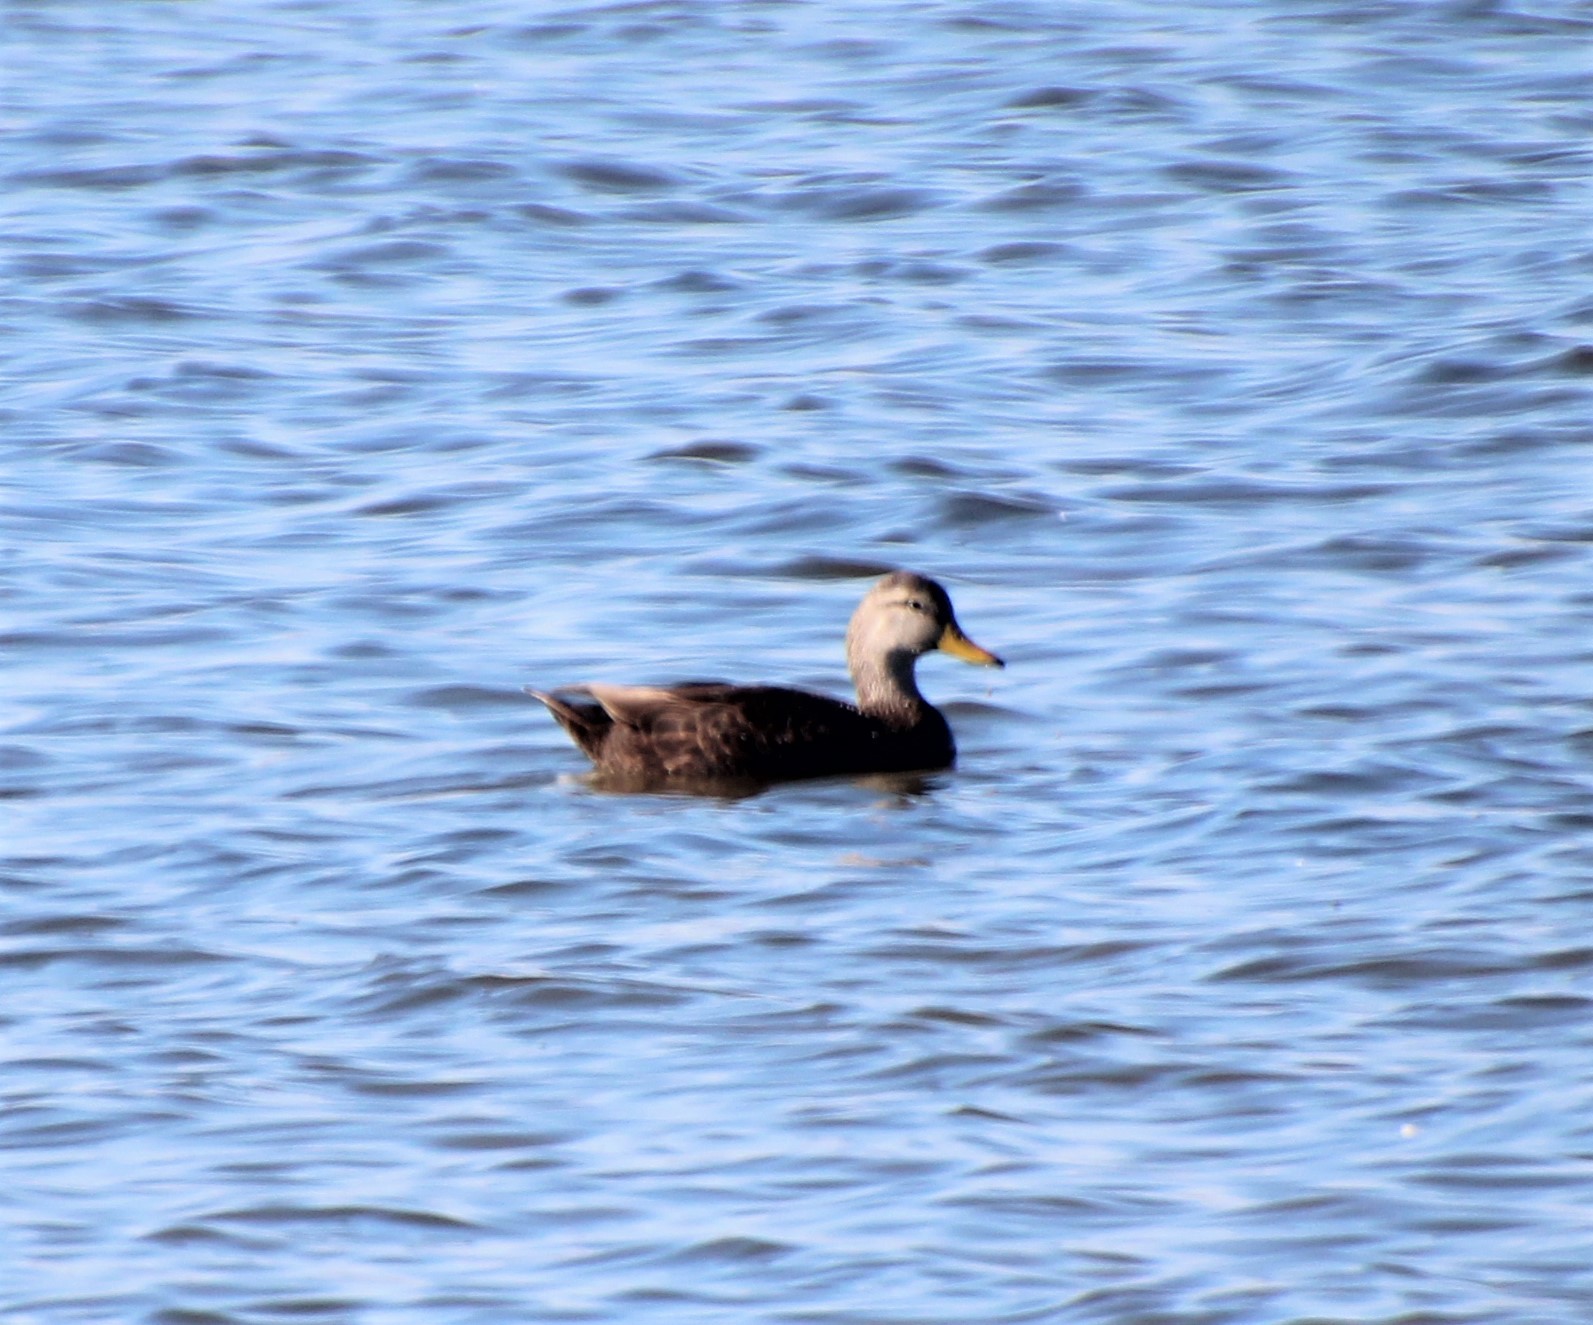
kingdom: Animalia
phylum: Chordata
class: Aves
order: Anseriformes
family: Anatidae
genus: Anas
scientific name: Anas rubripes
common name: American black duck
